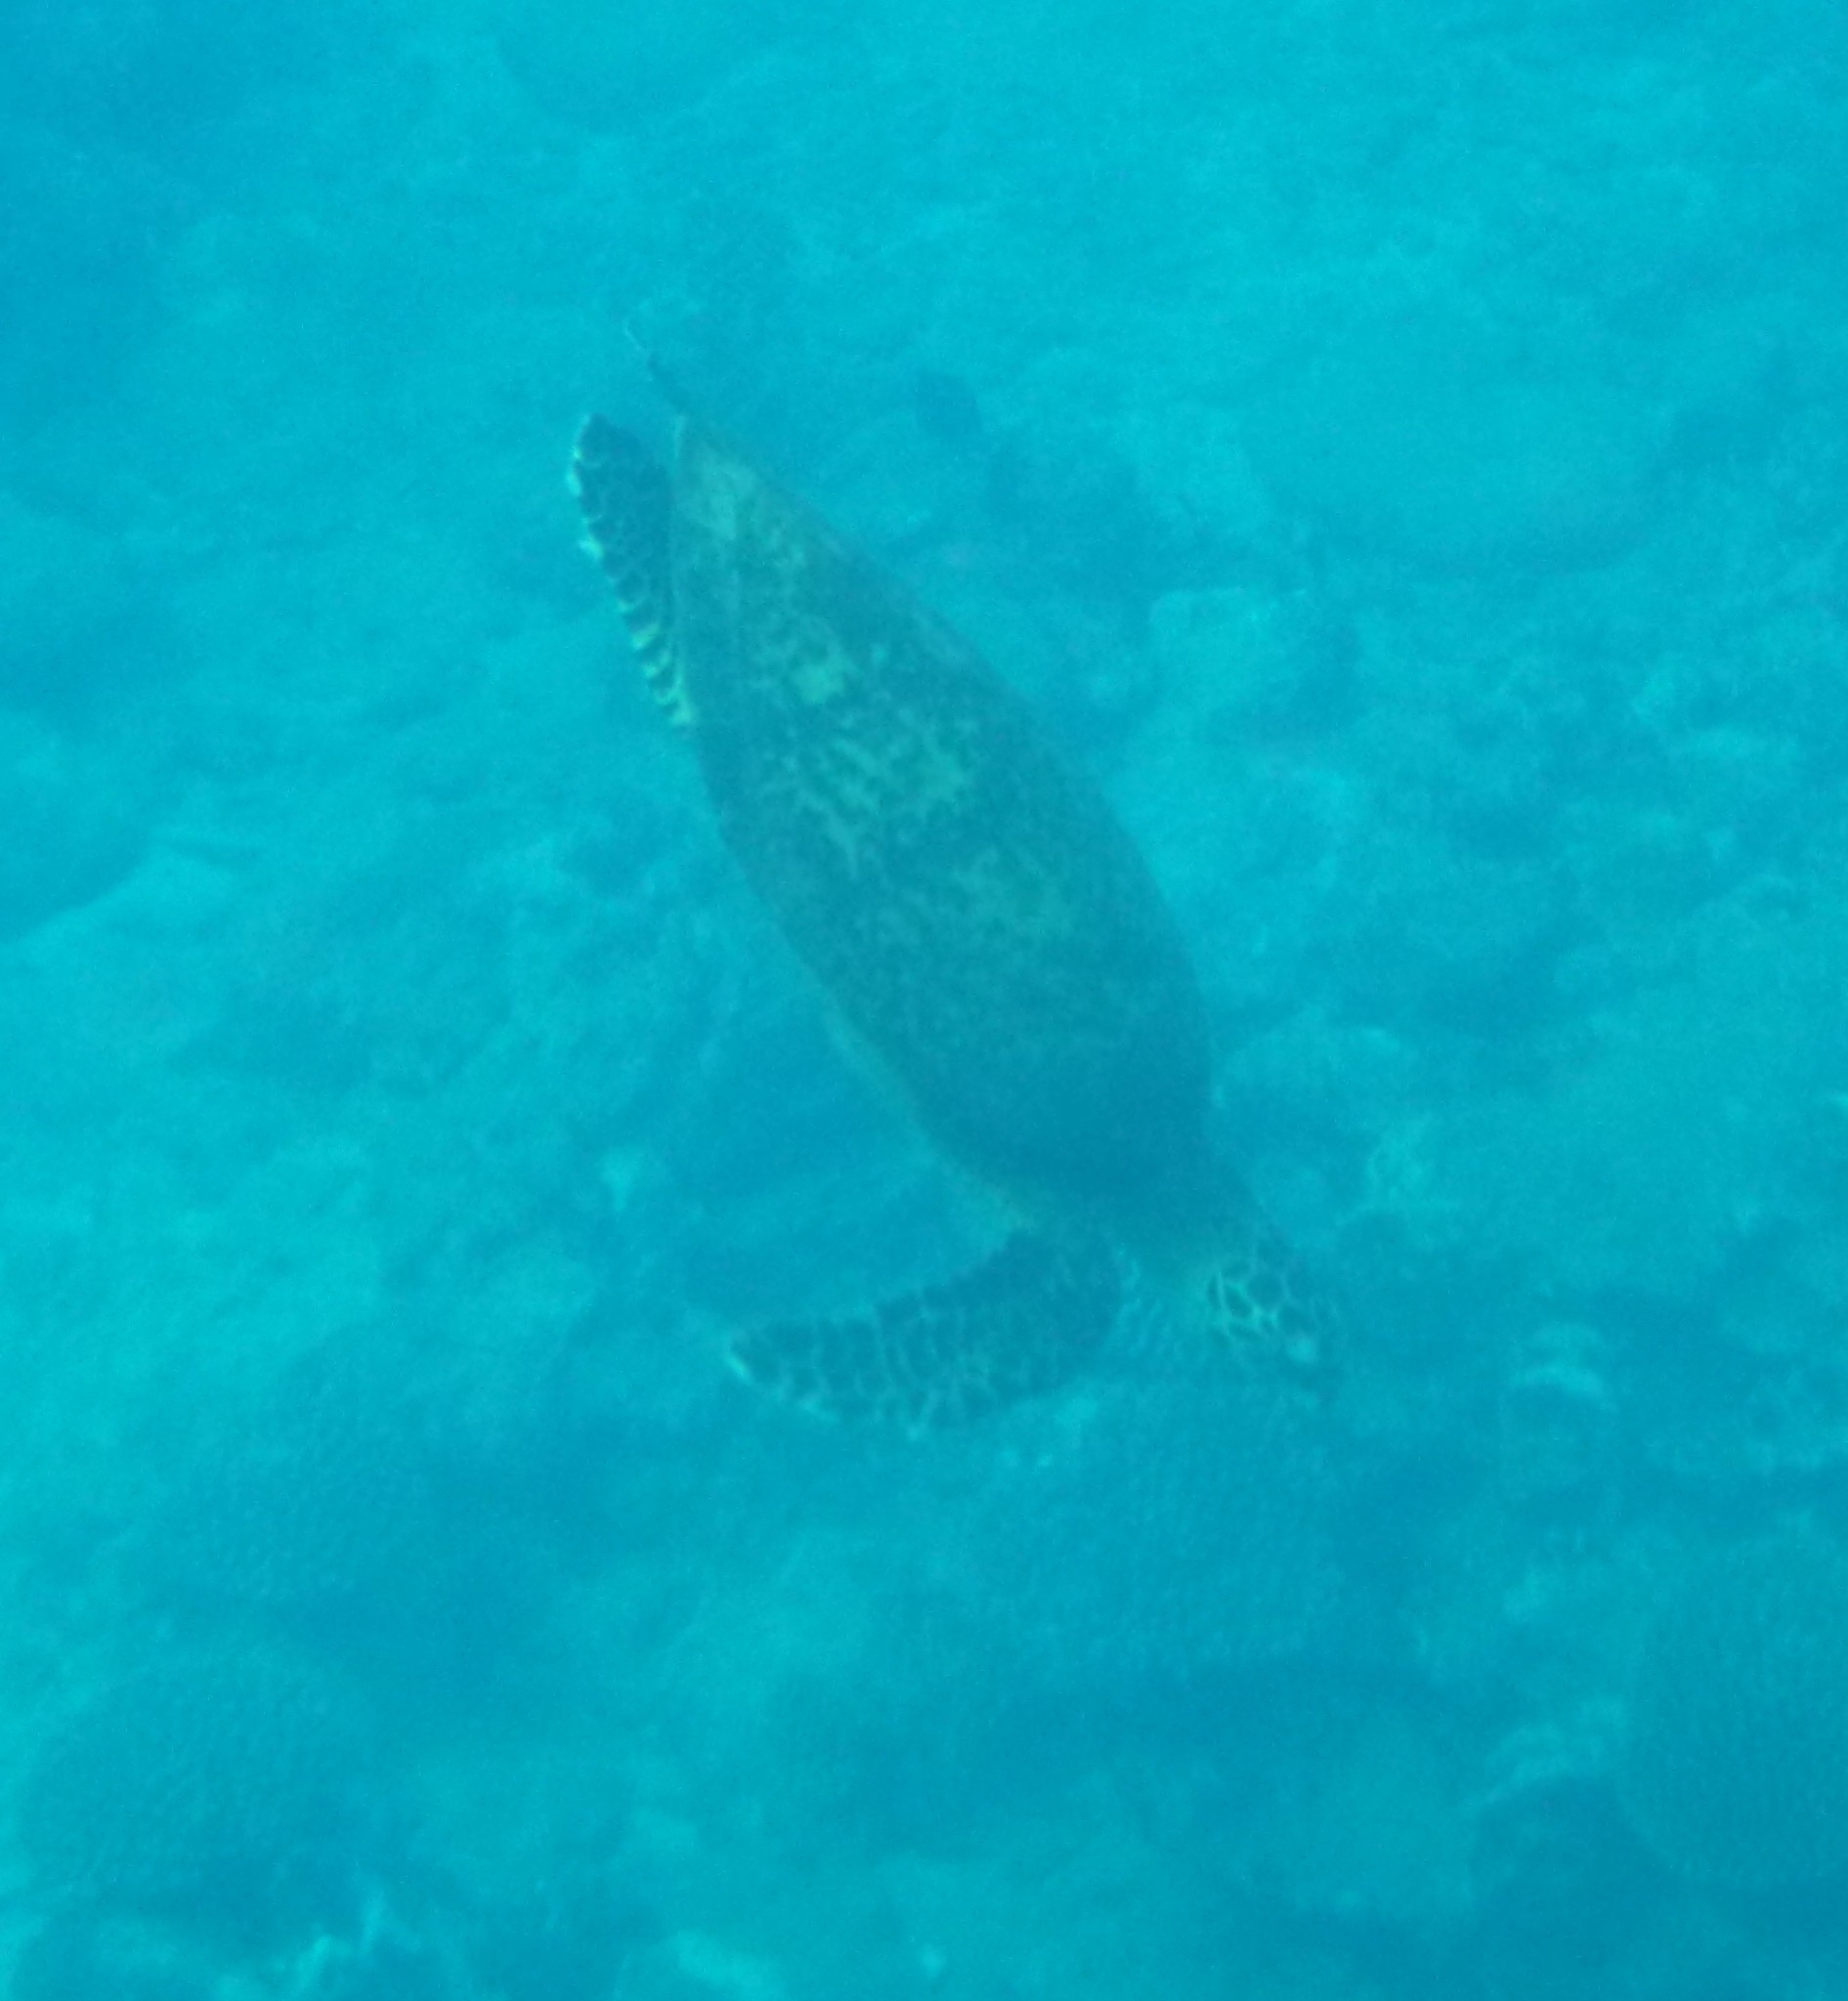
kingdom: Animalia
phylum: Chordata
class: Testudines
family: Cheloniidae
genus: Eretmochelys
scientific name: Eretmochelys imbricata
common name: Hawksbill turtle
